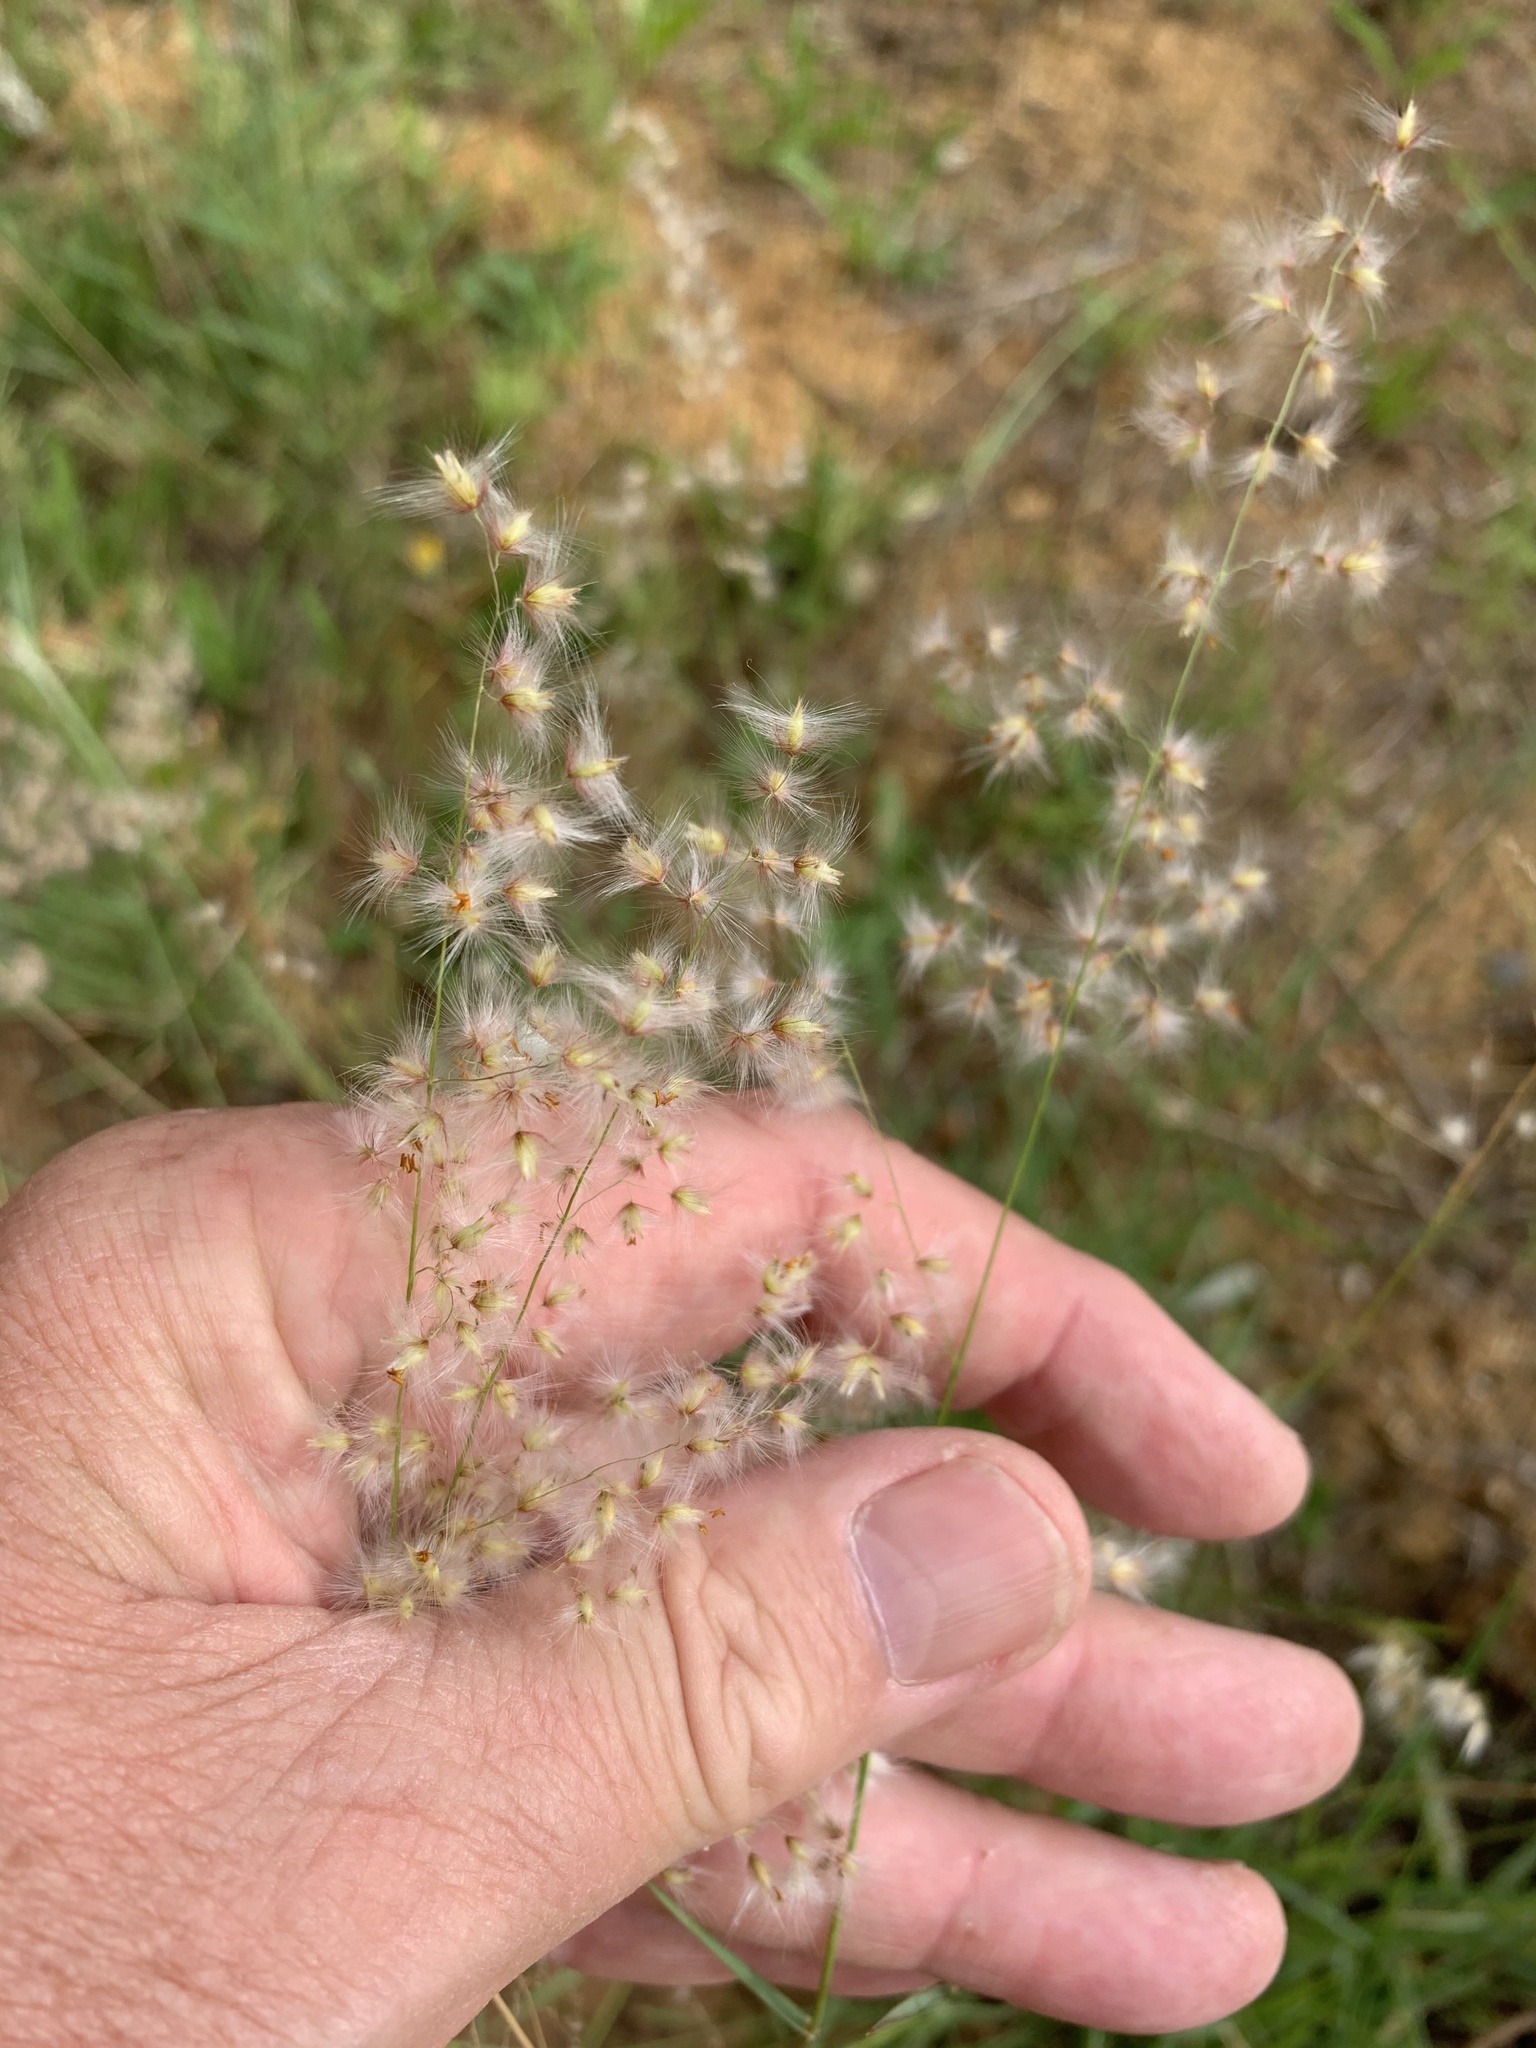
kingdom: Plantae
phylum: Tracheophyta
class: Liliopsida
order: Poales
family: Poaceae
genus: Melinis
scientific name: Melinis repens
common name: Rose natal grass
